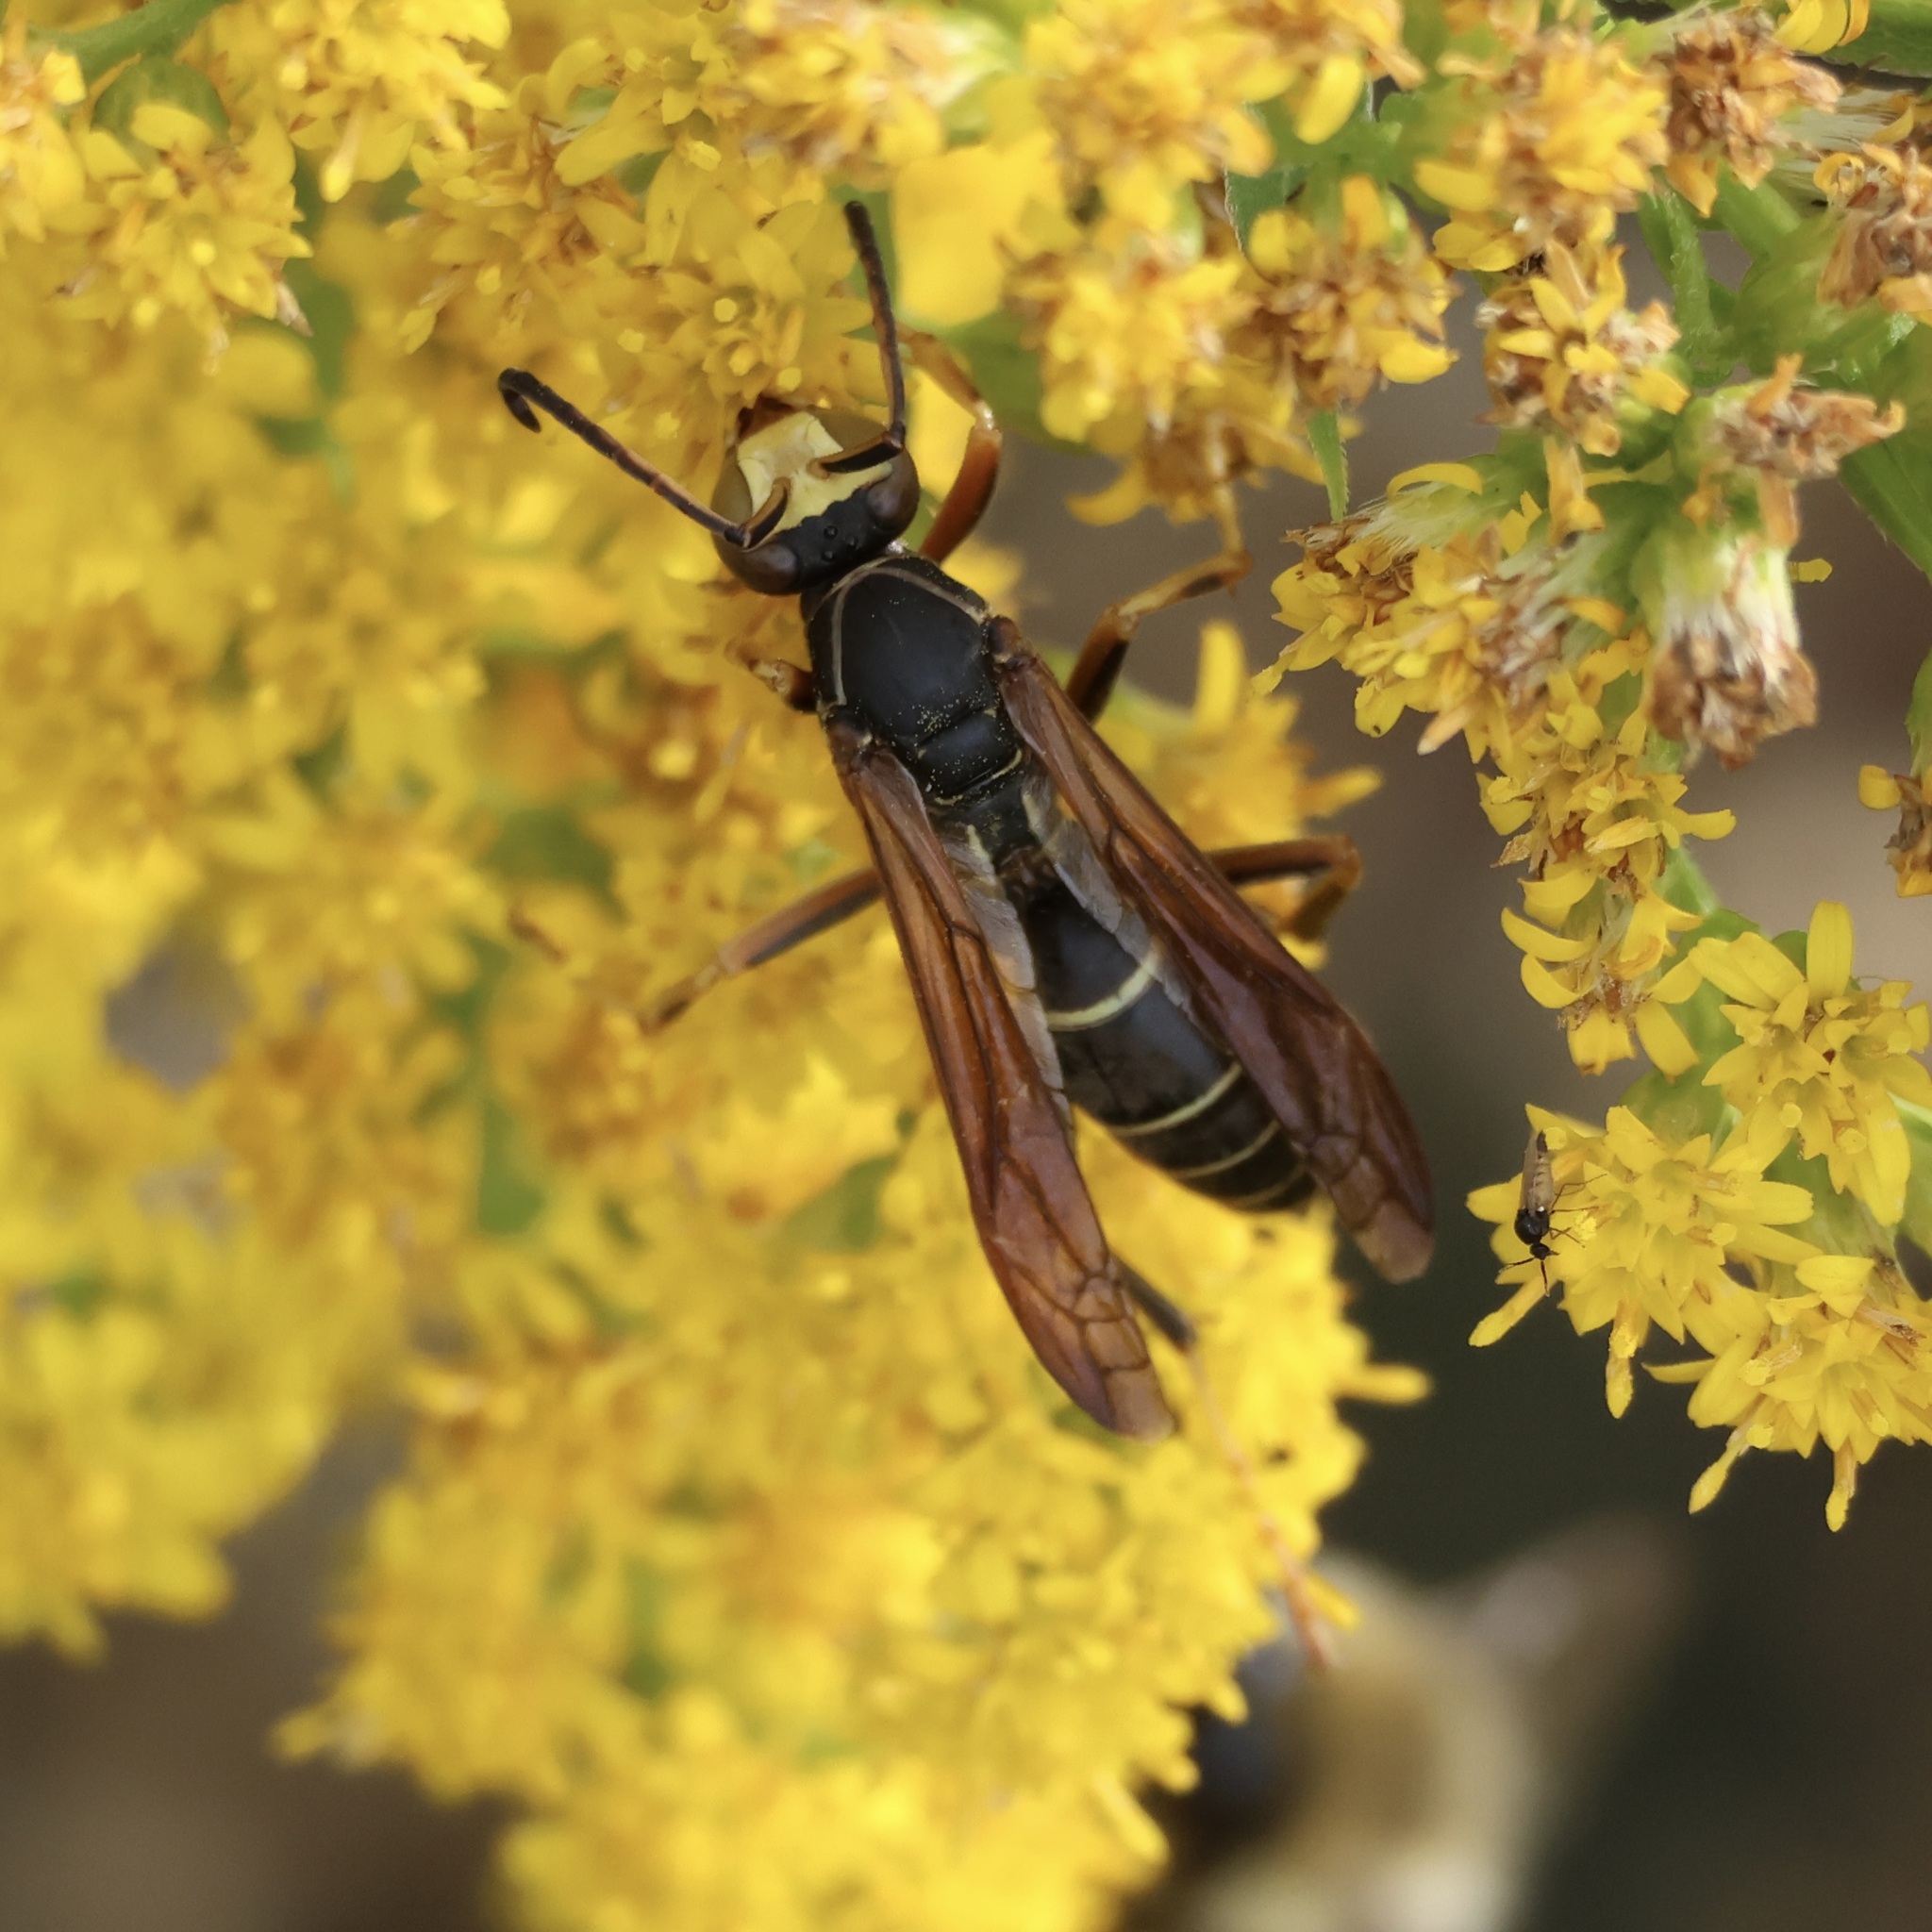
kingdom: Animalia
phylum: Arthropoda
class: Insecta
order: Hymenoptera
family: Eumenidae
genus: Polistes
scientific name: Polistes fuscatus
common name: Dark paper wasp
